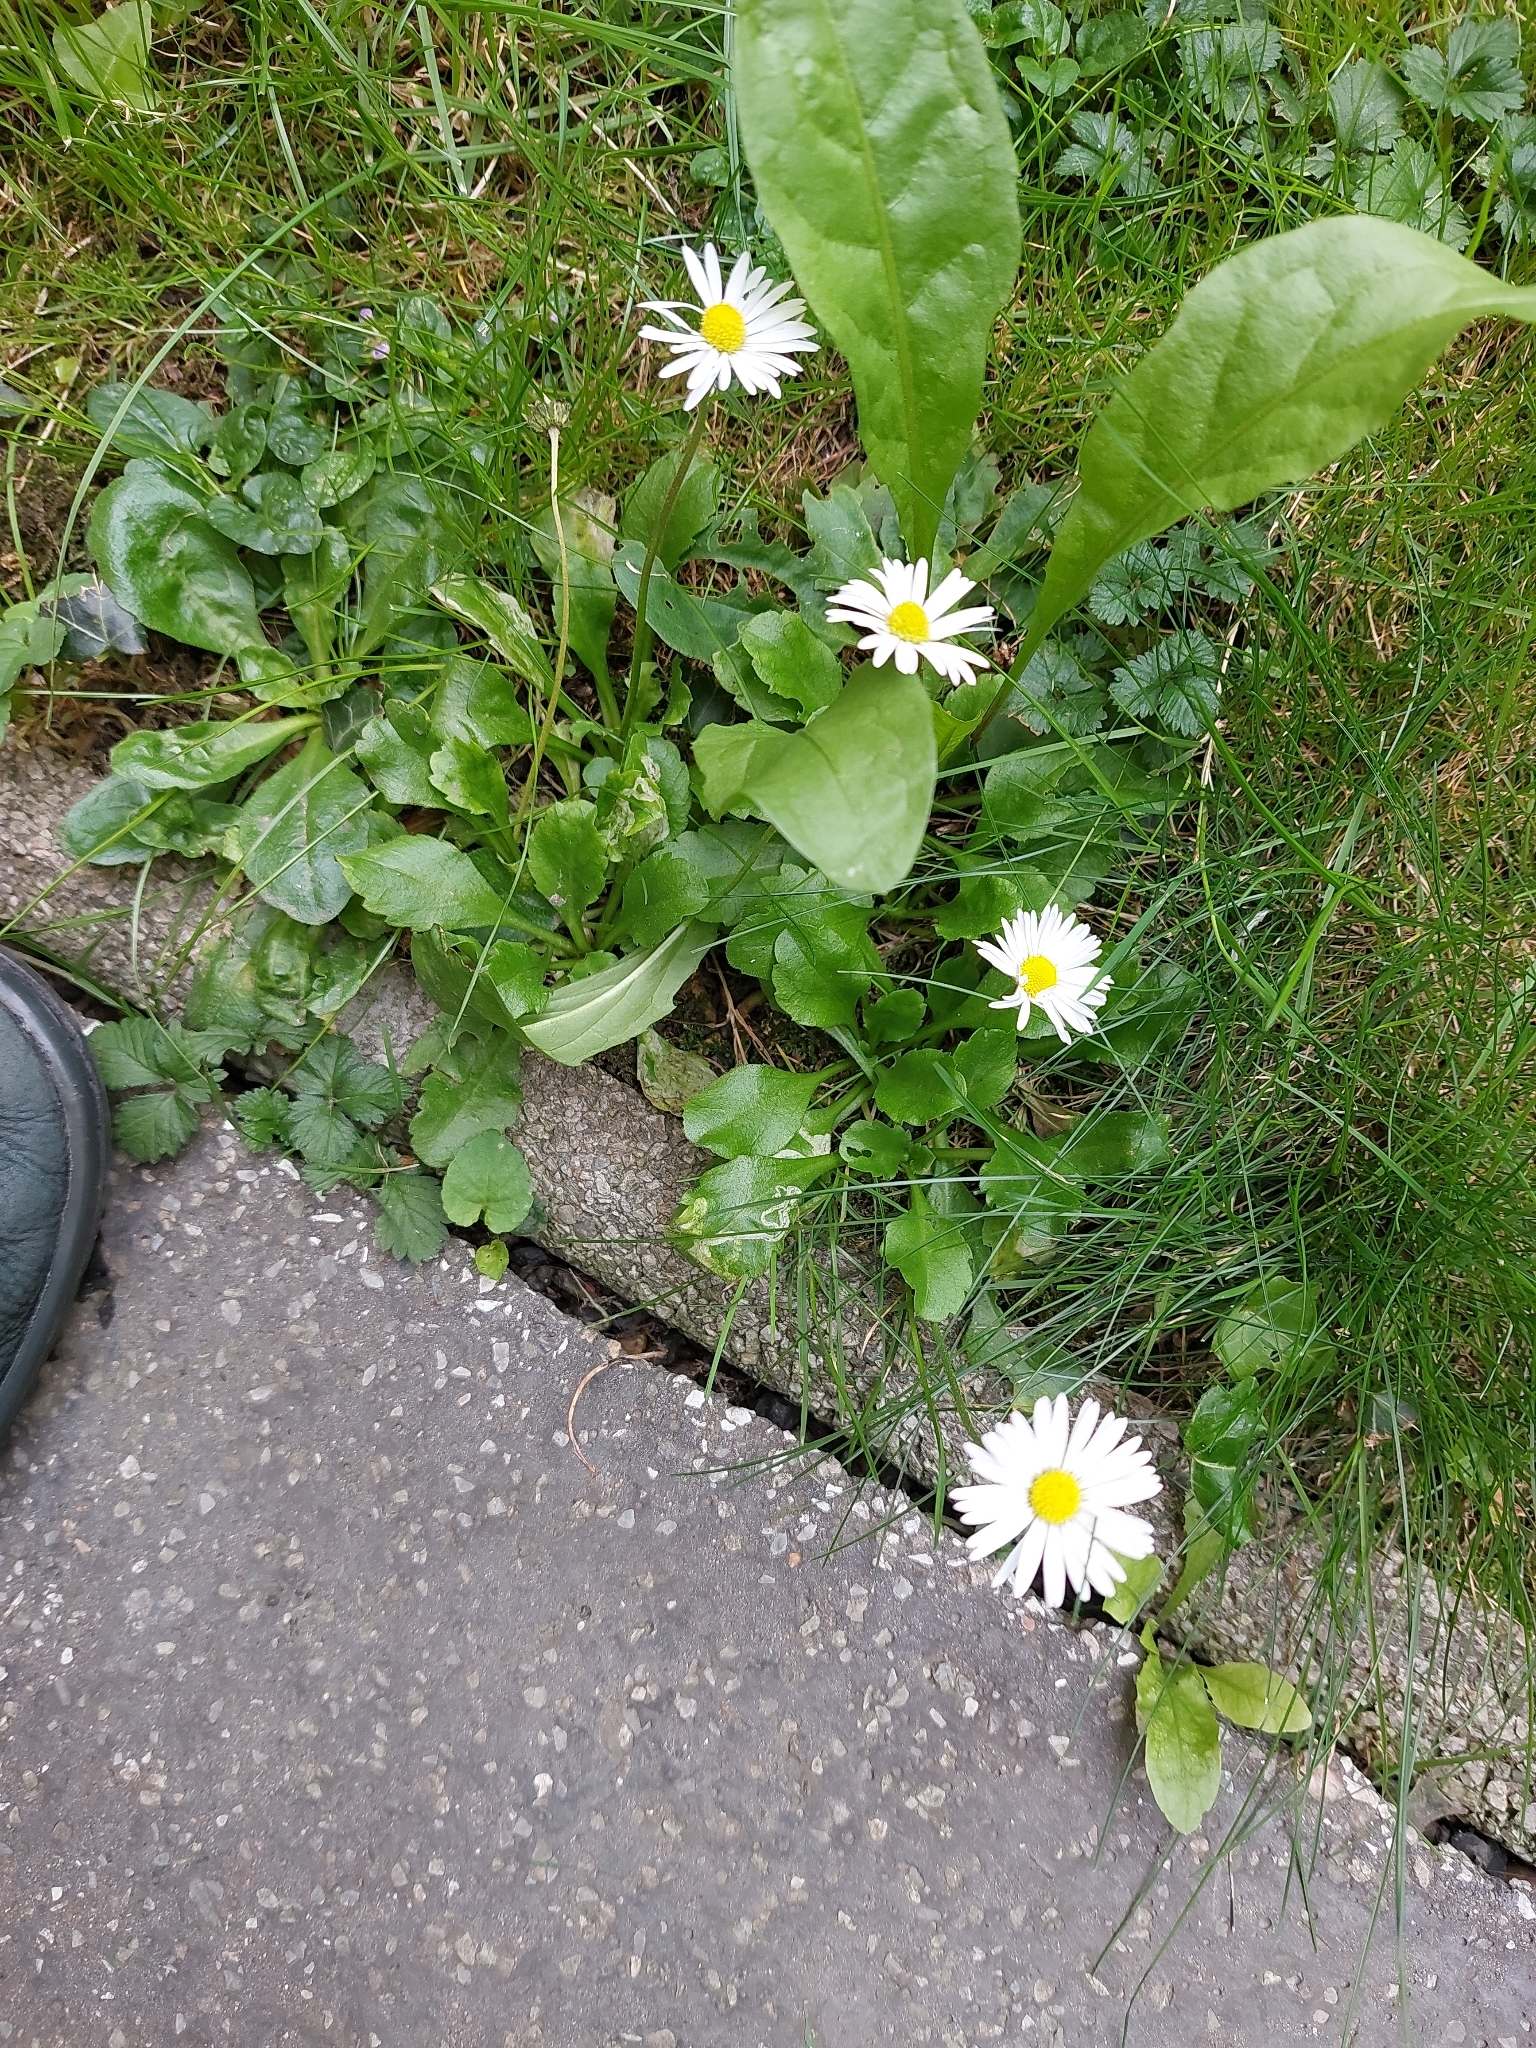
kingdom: Plantae
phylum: Tracheophyta
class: Magnoliopsida
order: Asterales
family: Asteraceae
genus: Bellis
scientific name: Bellis perennis
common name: Lawndaisy
